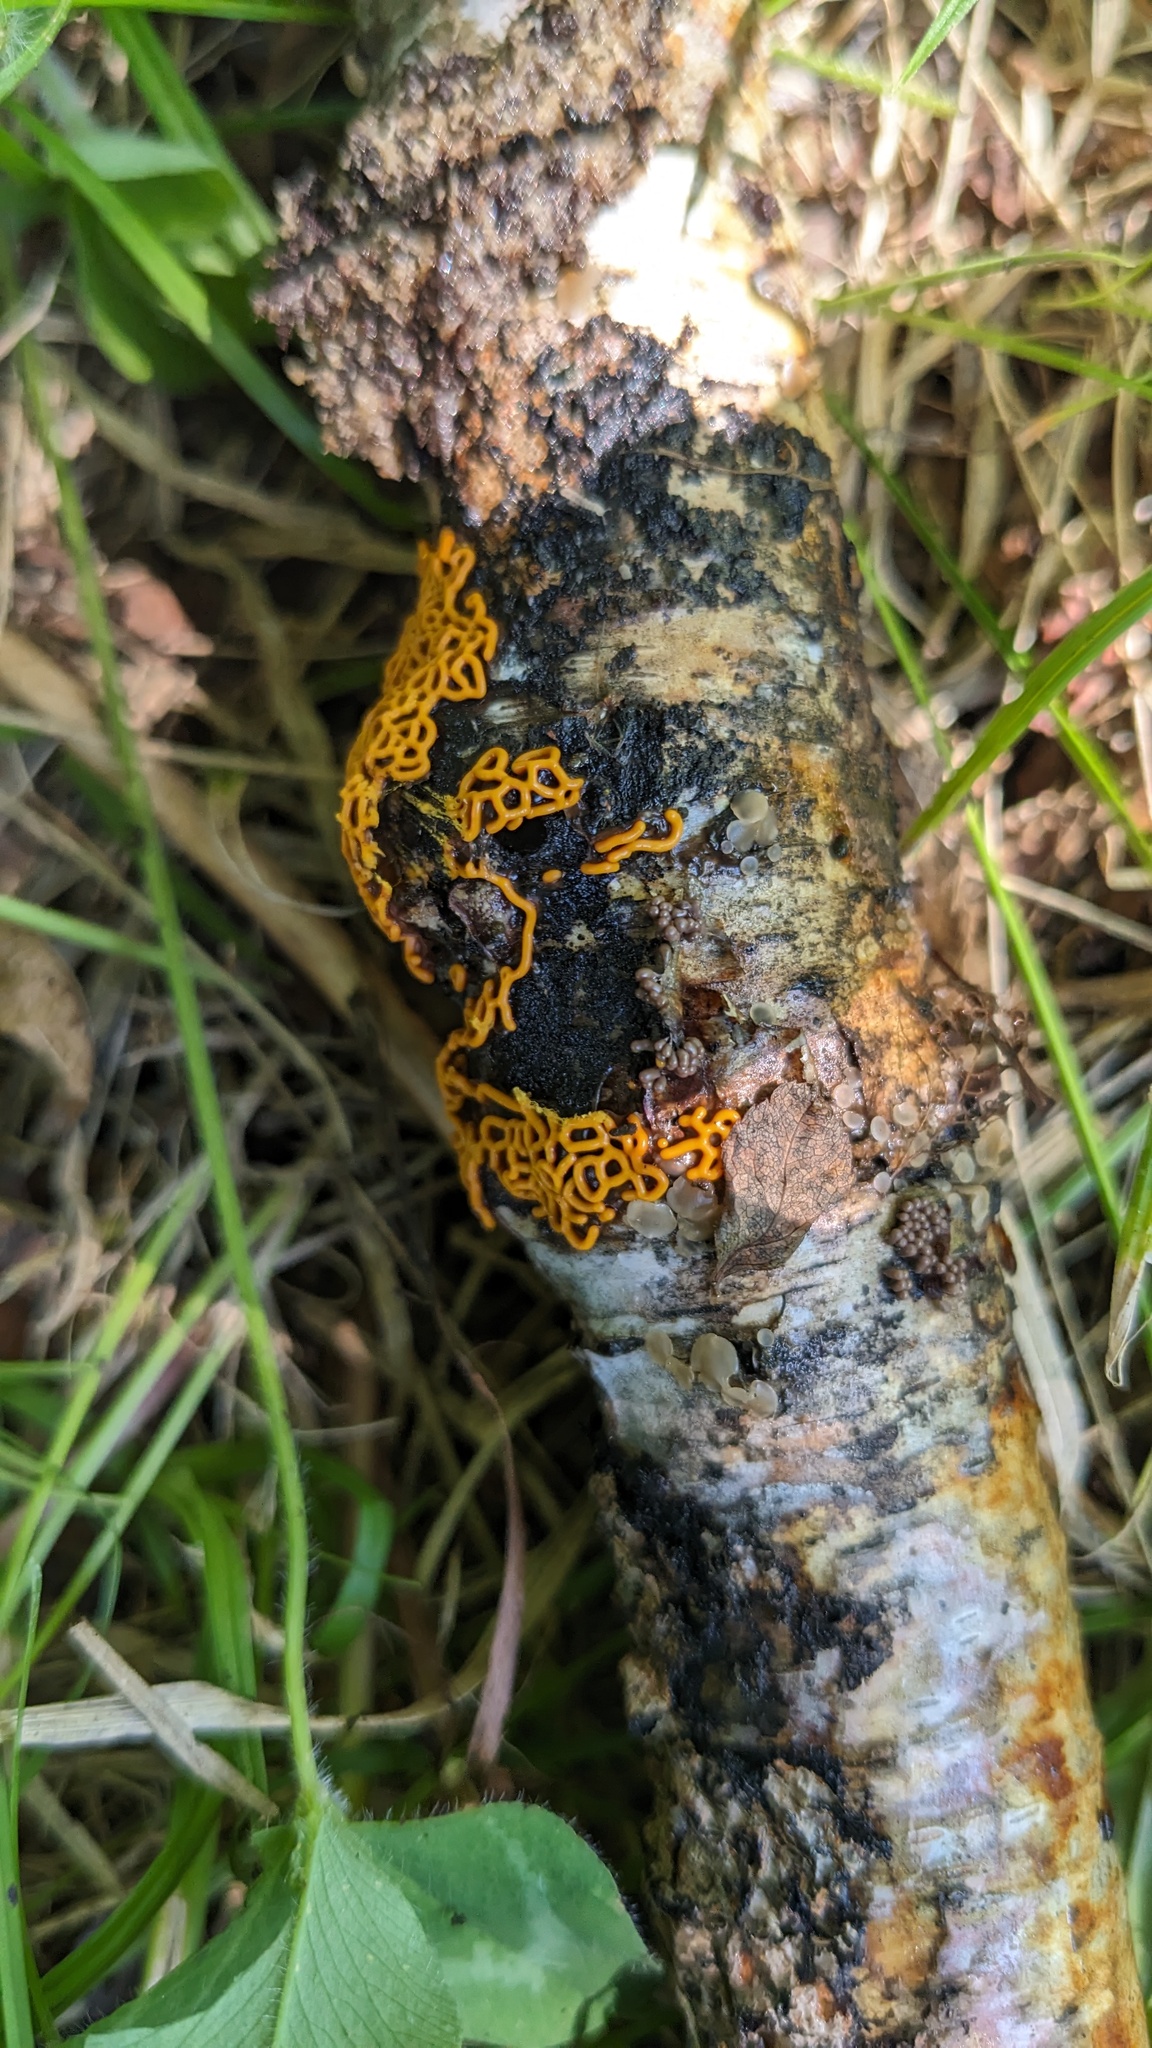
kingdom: Protozoa
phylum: Mycetozoa
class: Myxomycetes
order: Trichiales
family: Arcyriaceae
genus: Hemitrichia
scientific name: Hemitrichia serpula
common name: Pretzel slime mold
